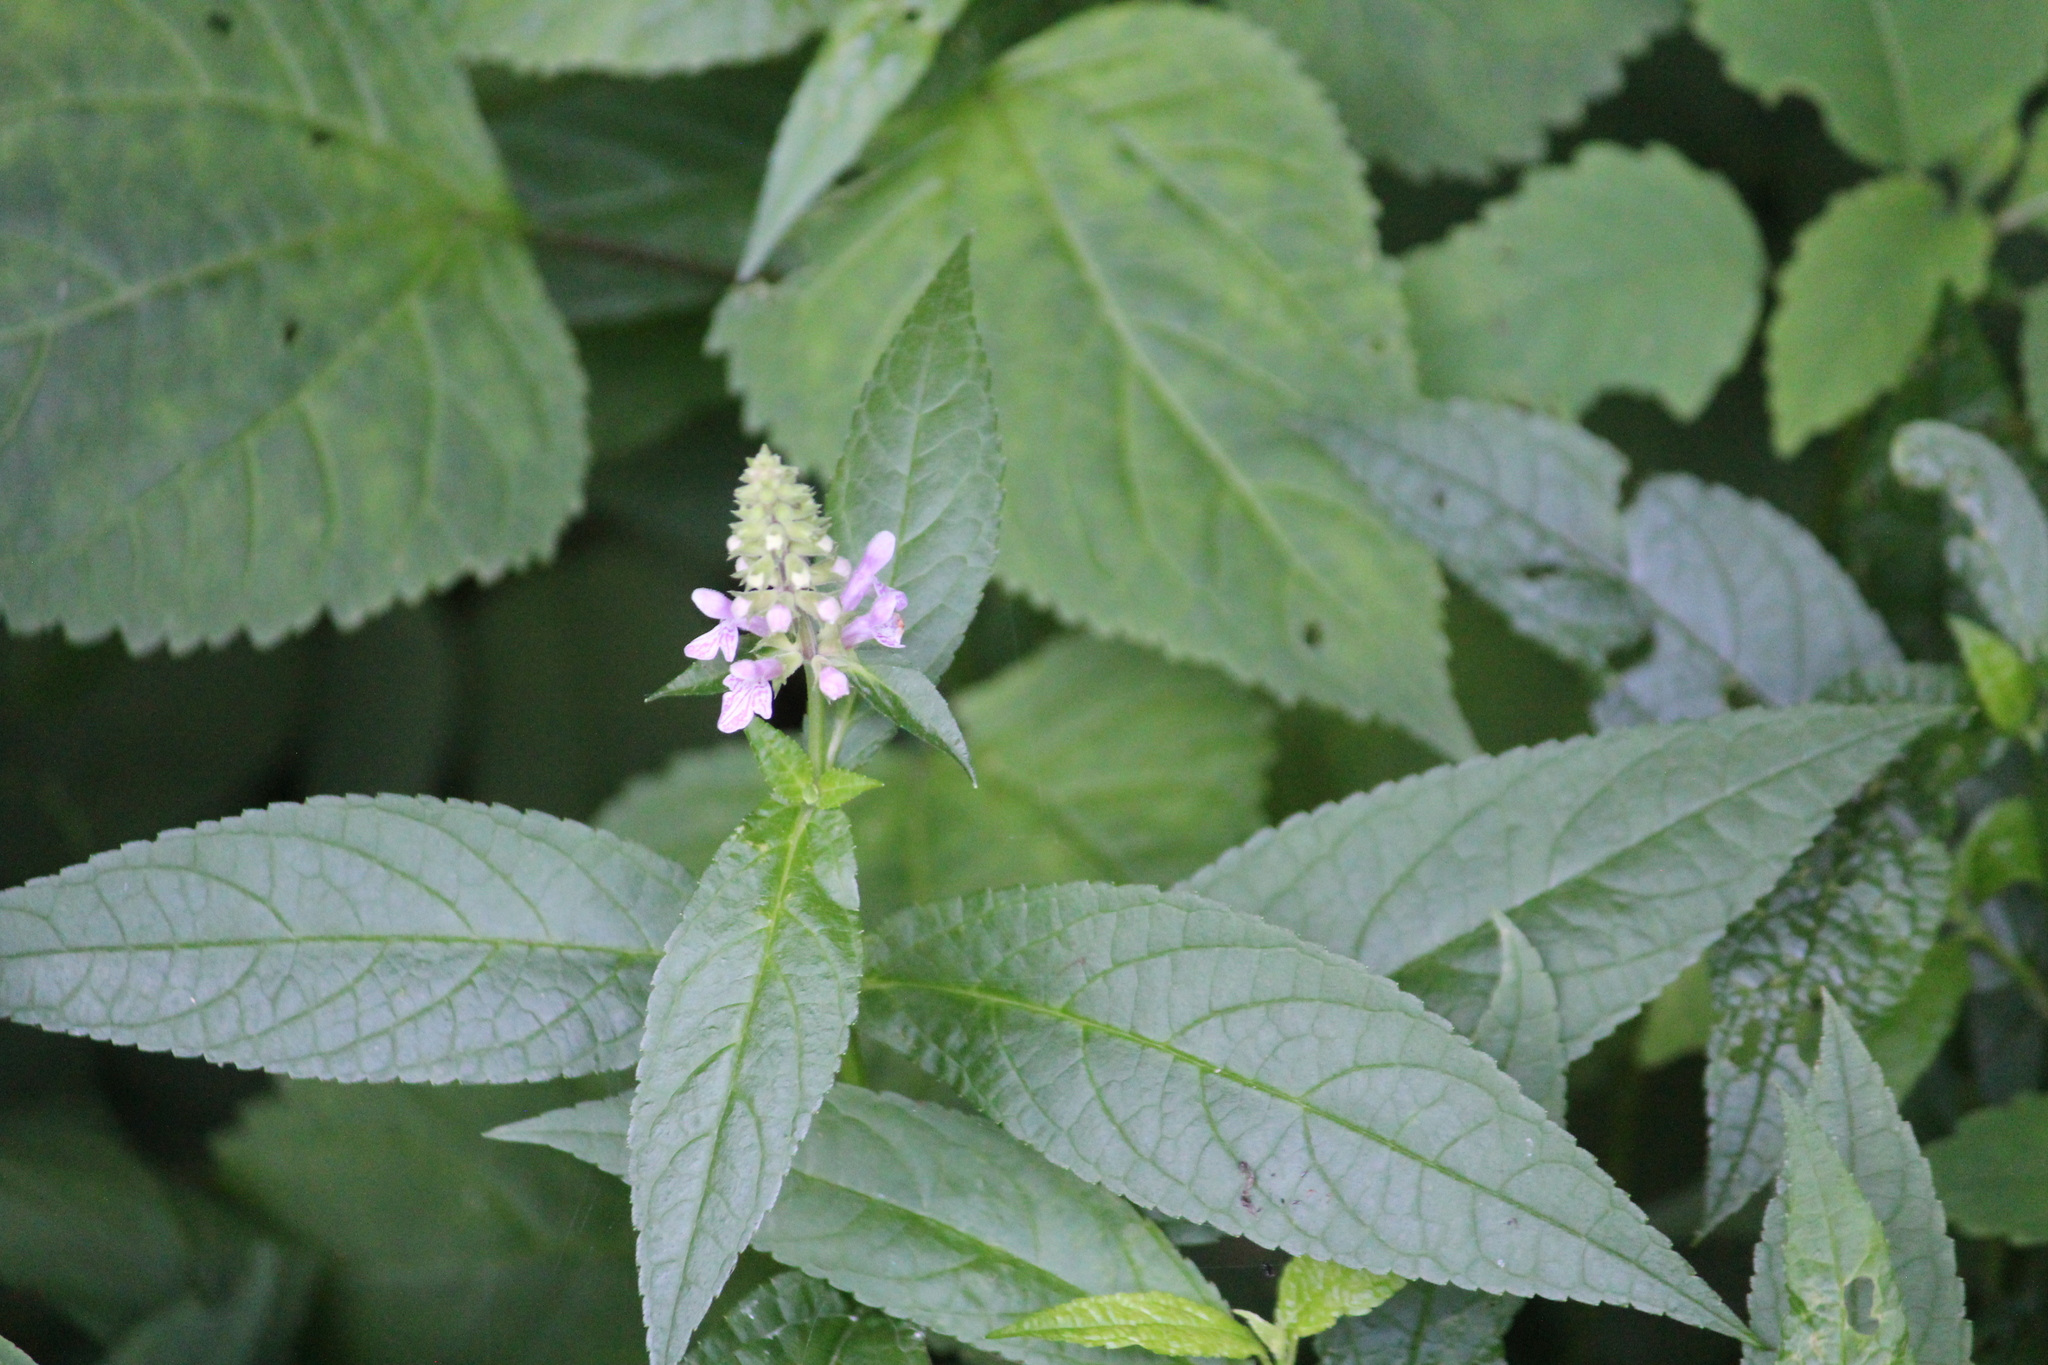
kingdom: Plantae
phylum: Tracheophyta
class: Magnoliopsida
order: Lamiales
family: Lamiaceae
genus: Stachys
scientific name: Stachys latidens
